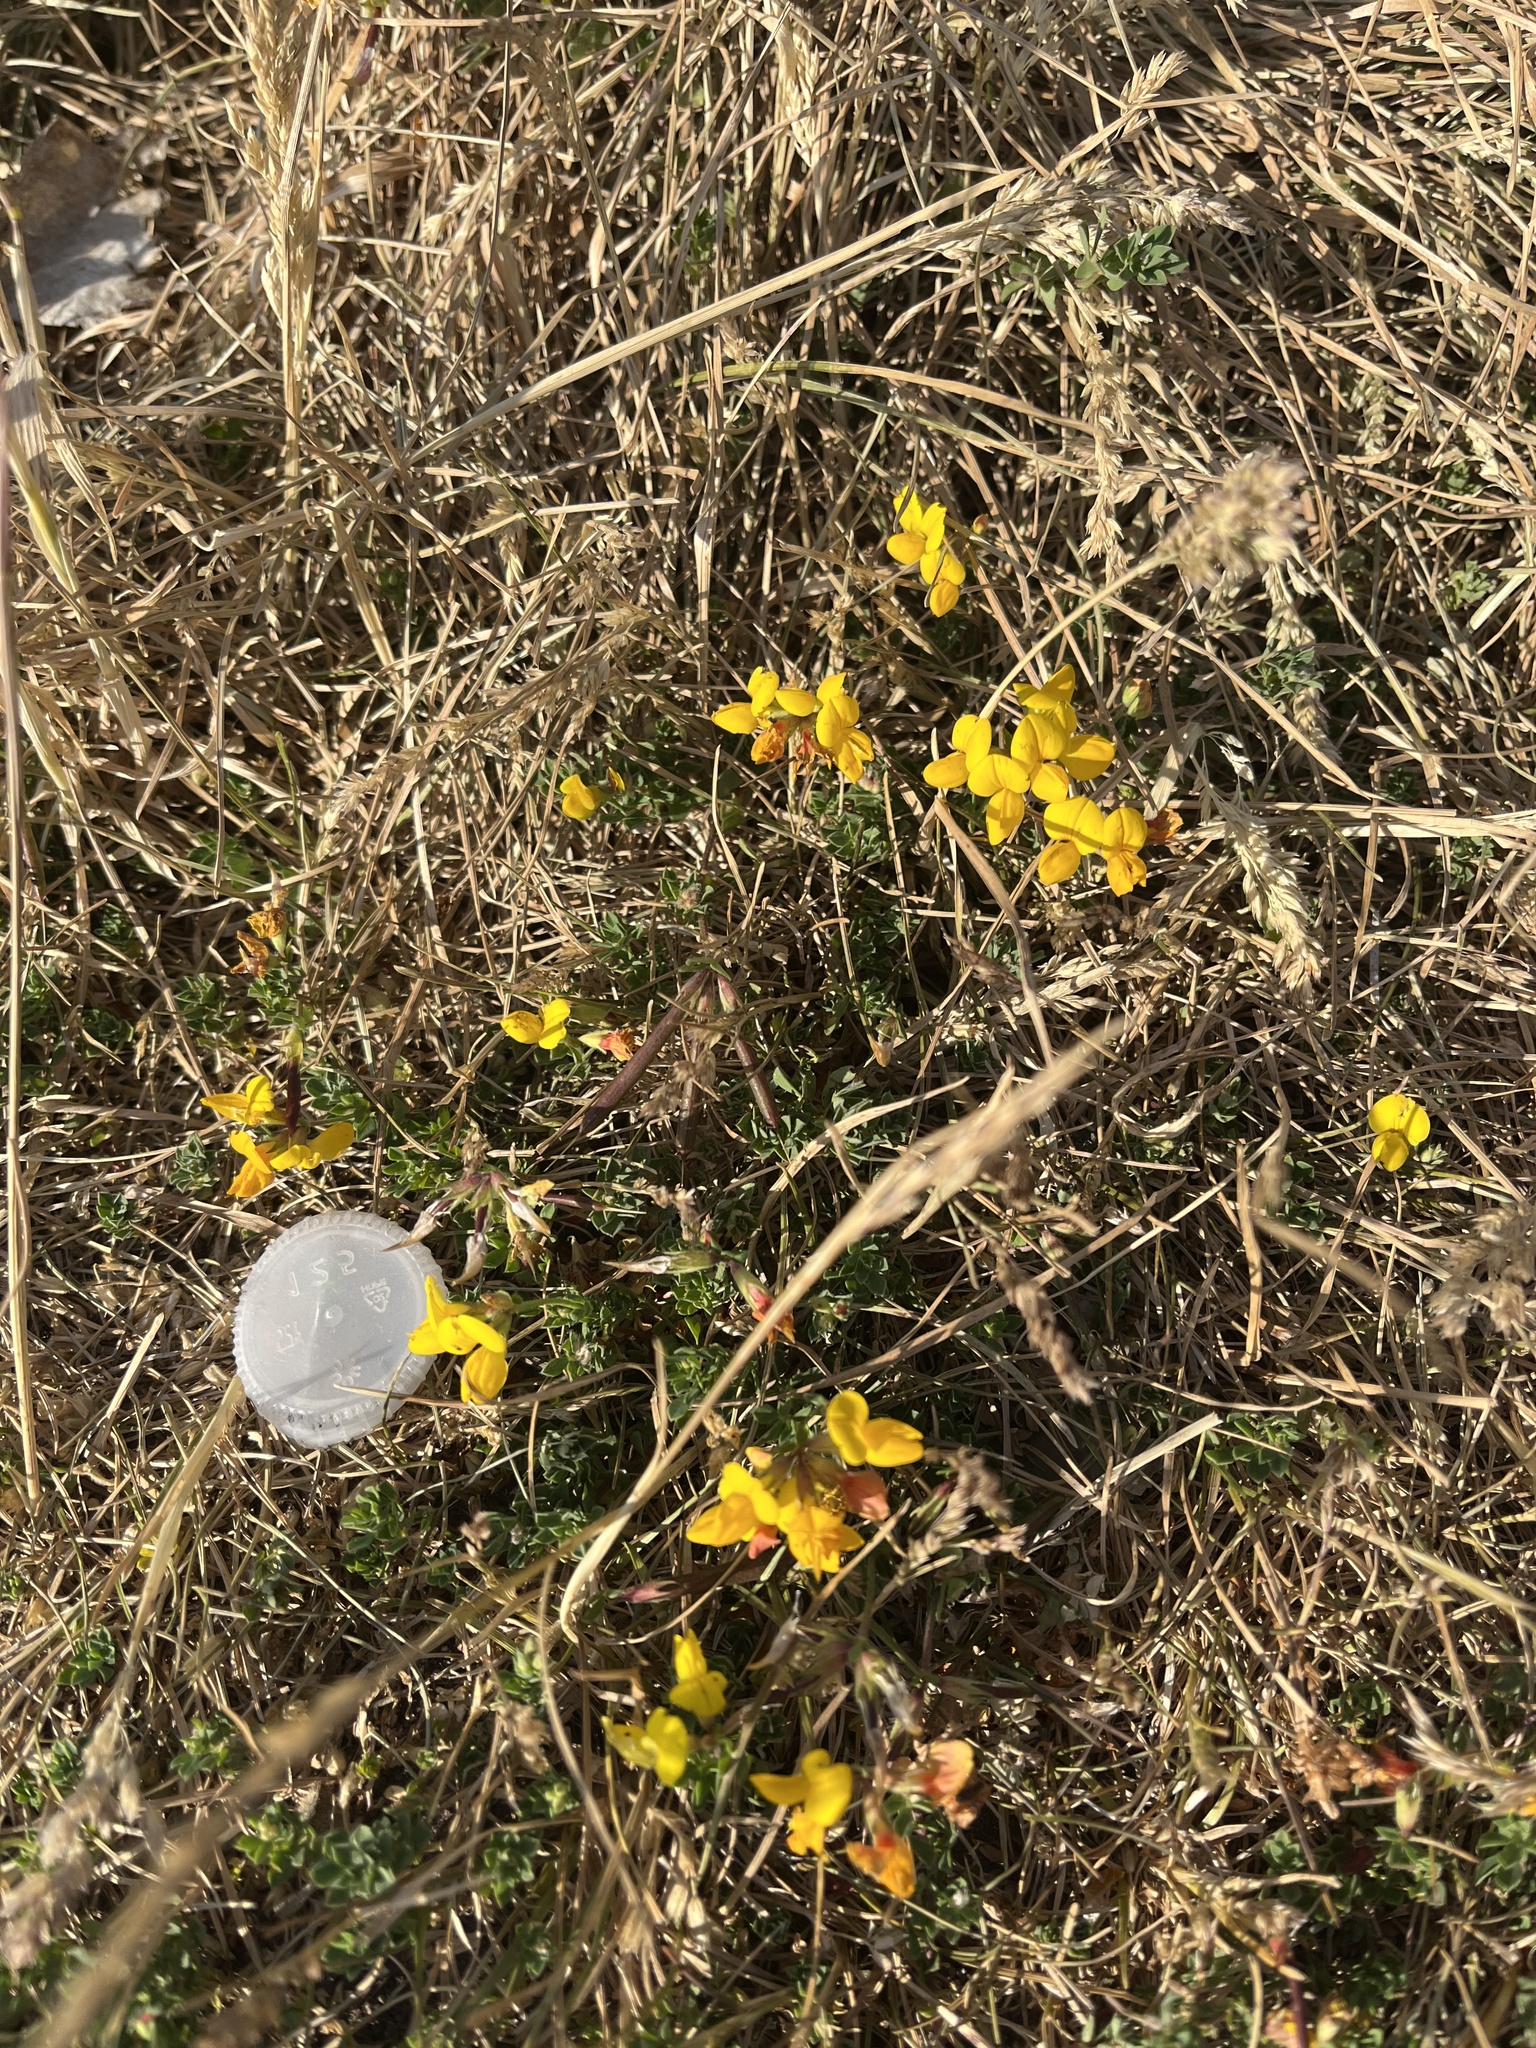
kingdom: Plantae
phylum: Tracheophyta
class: Magnoliopsida
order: Fabales
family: Fabaceae
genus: Lotus
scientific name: Lotus corniculatus
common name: Common bird's-foot-trefoil
